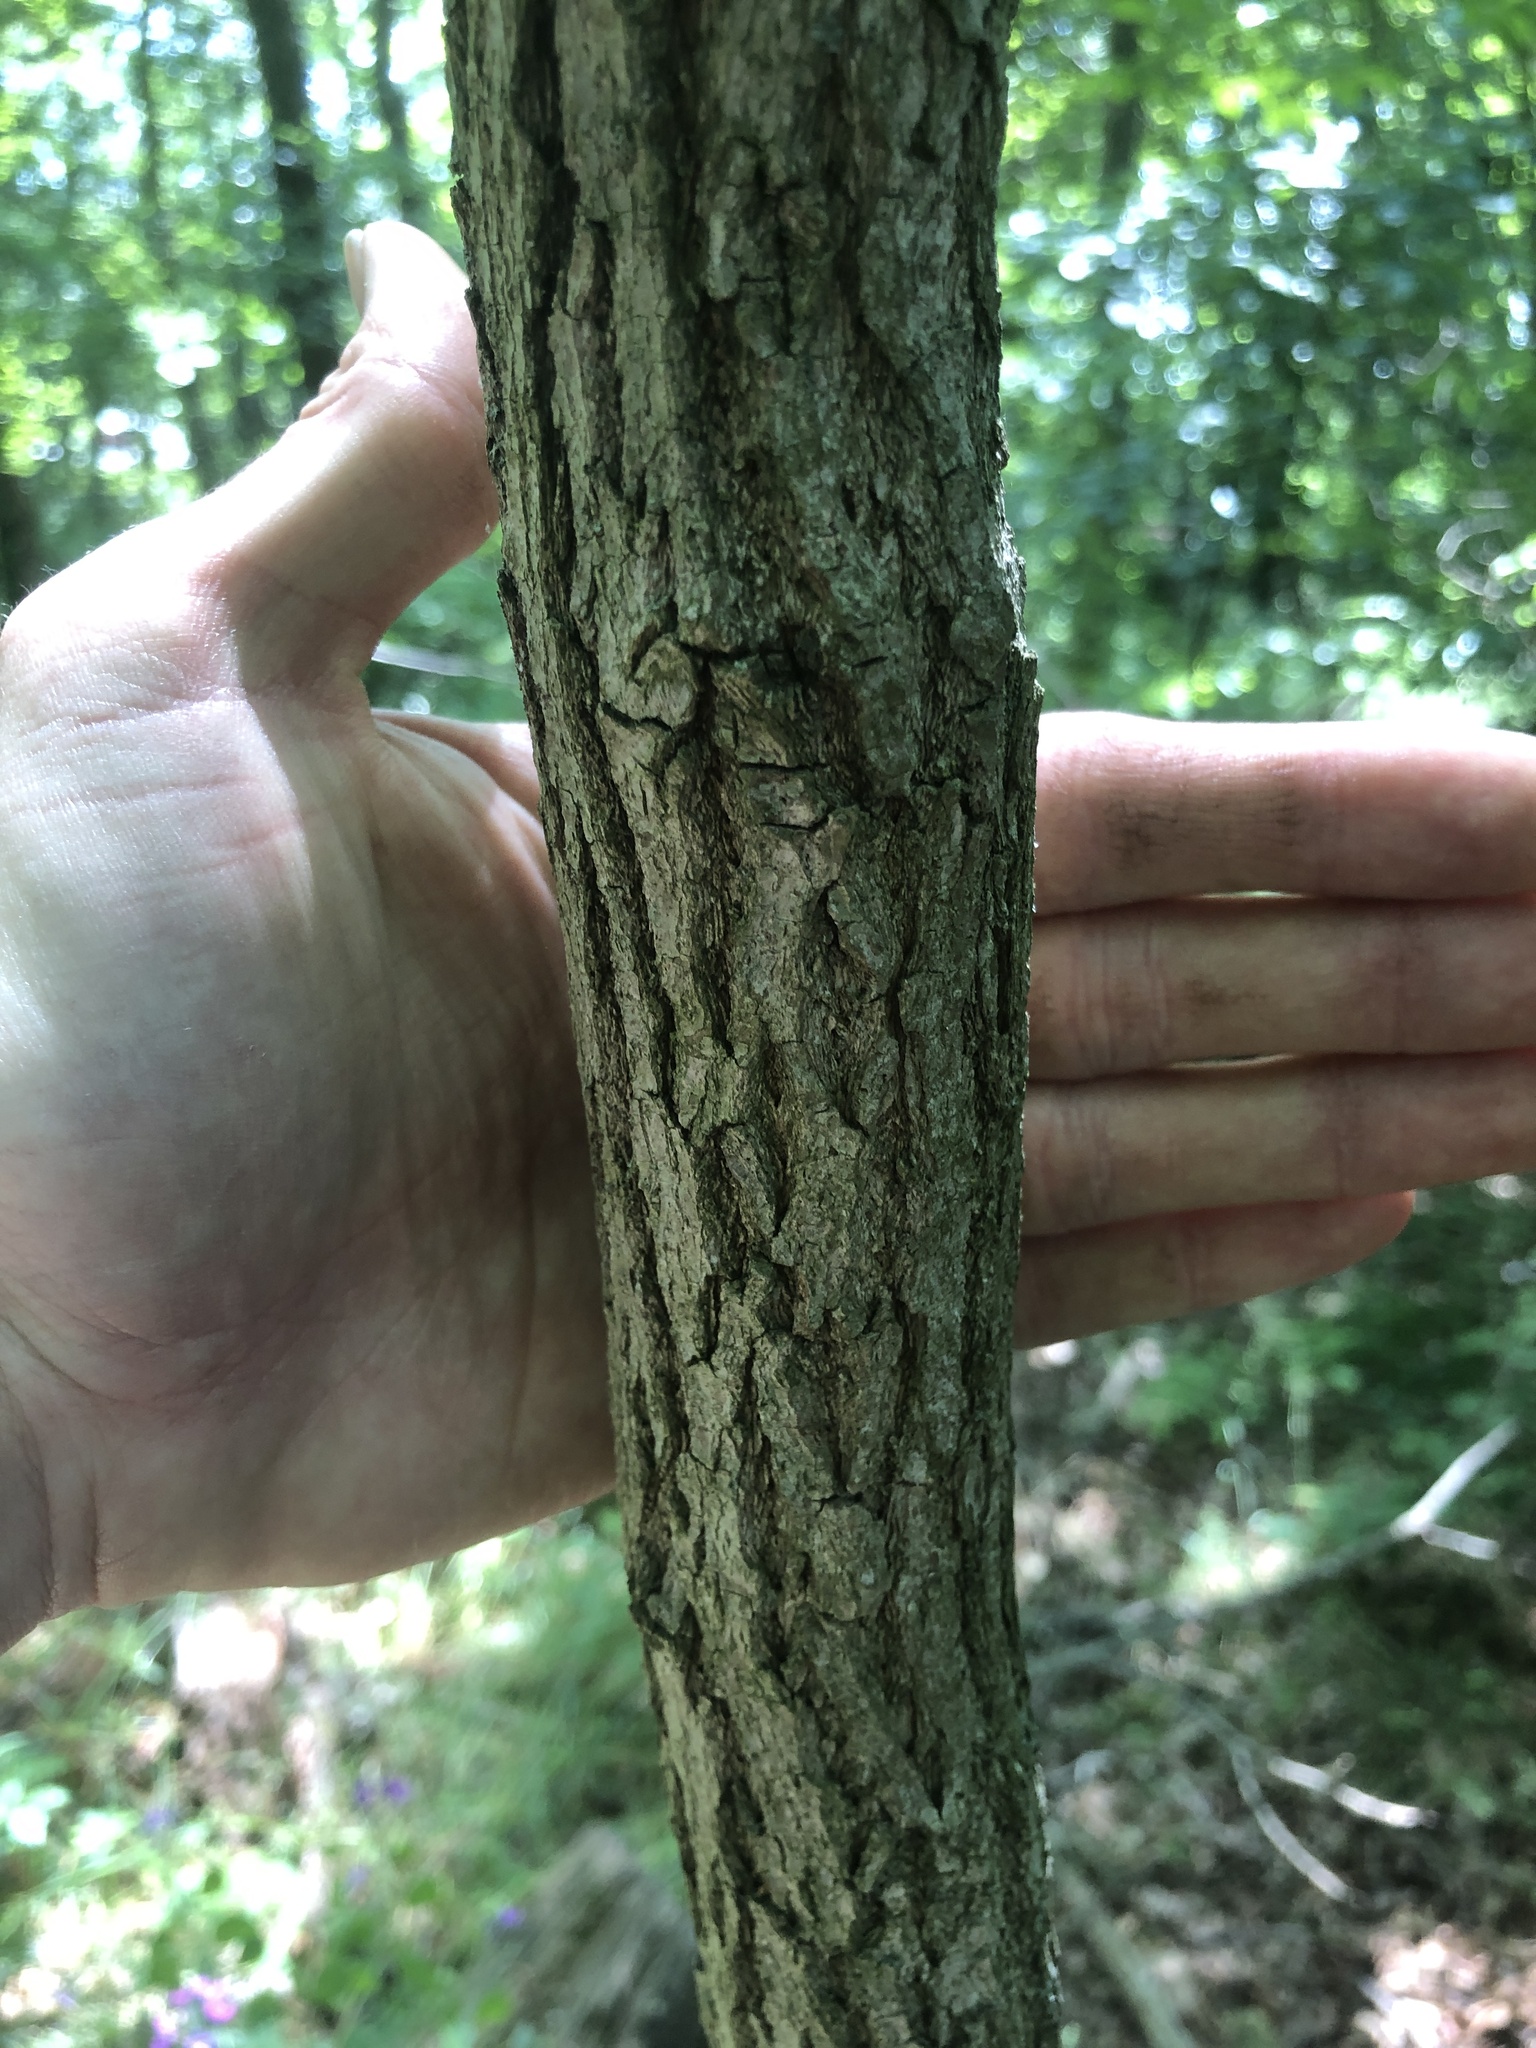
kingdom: Plantae
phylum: Tracheophyta
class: Magnoliopsida
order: Laurales
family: Lauraceae
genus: Sassafras
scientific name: Sassafras albidum
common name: Sassafras
